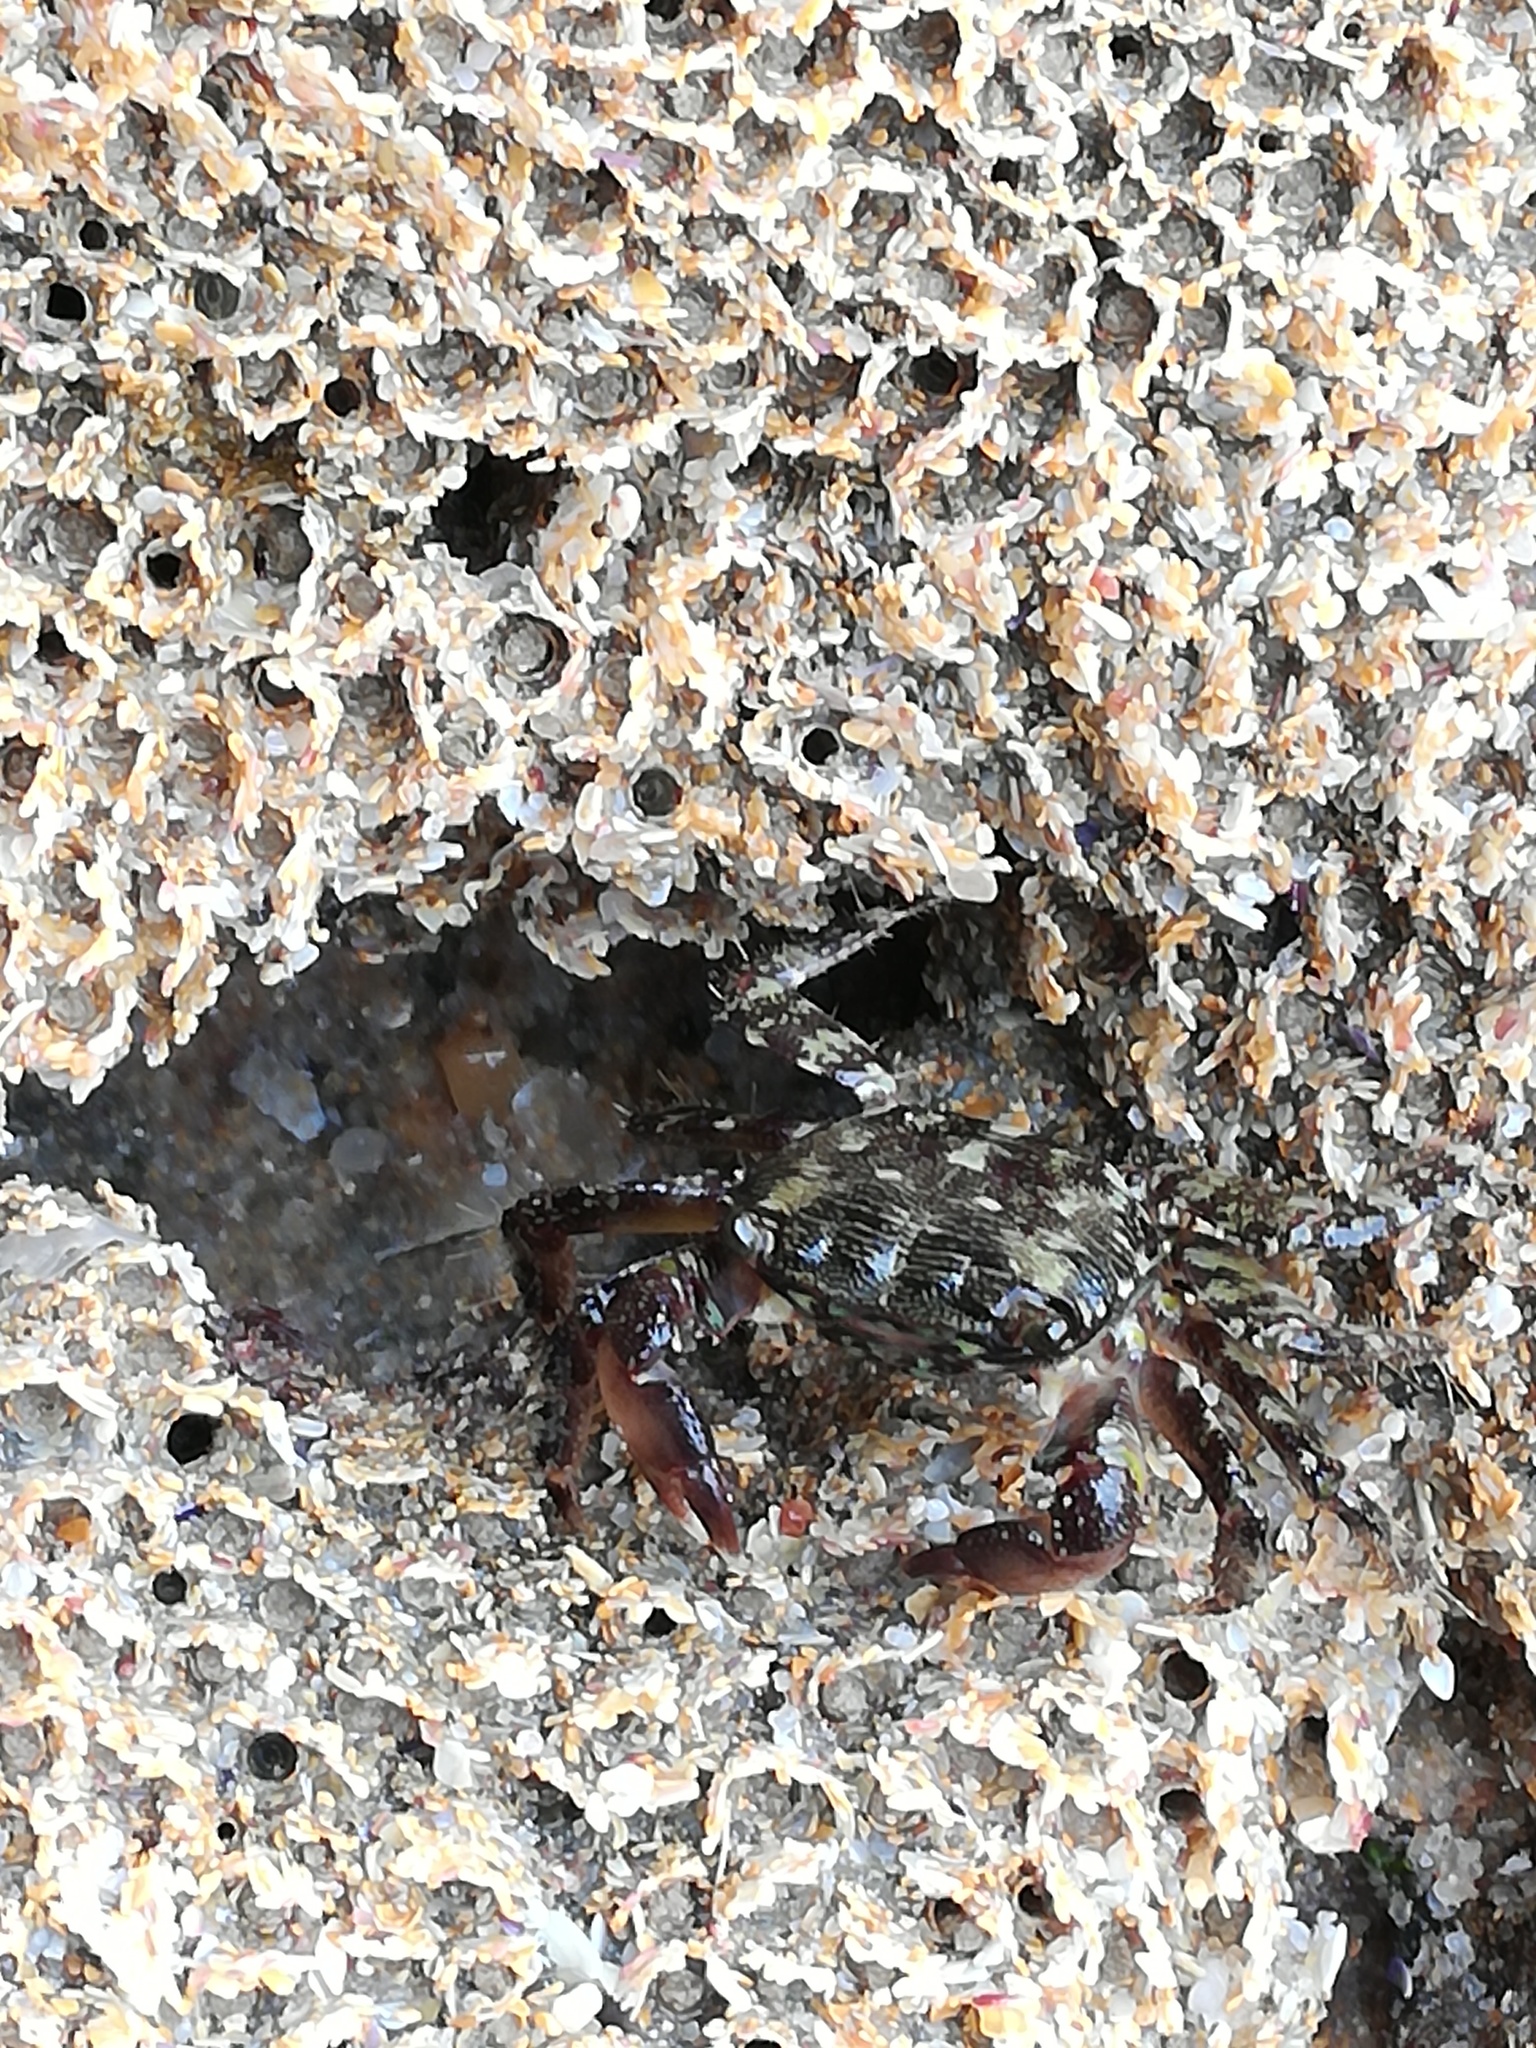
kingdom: Animalia
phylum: Arthropoda
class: Malacostraca
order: Decapoda
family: Grapsidae
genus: Pachygrapsus
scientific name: Pachygrapsus marmoratus
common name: Marbled rock crab
